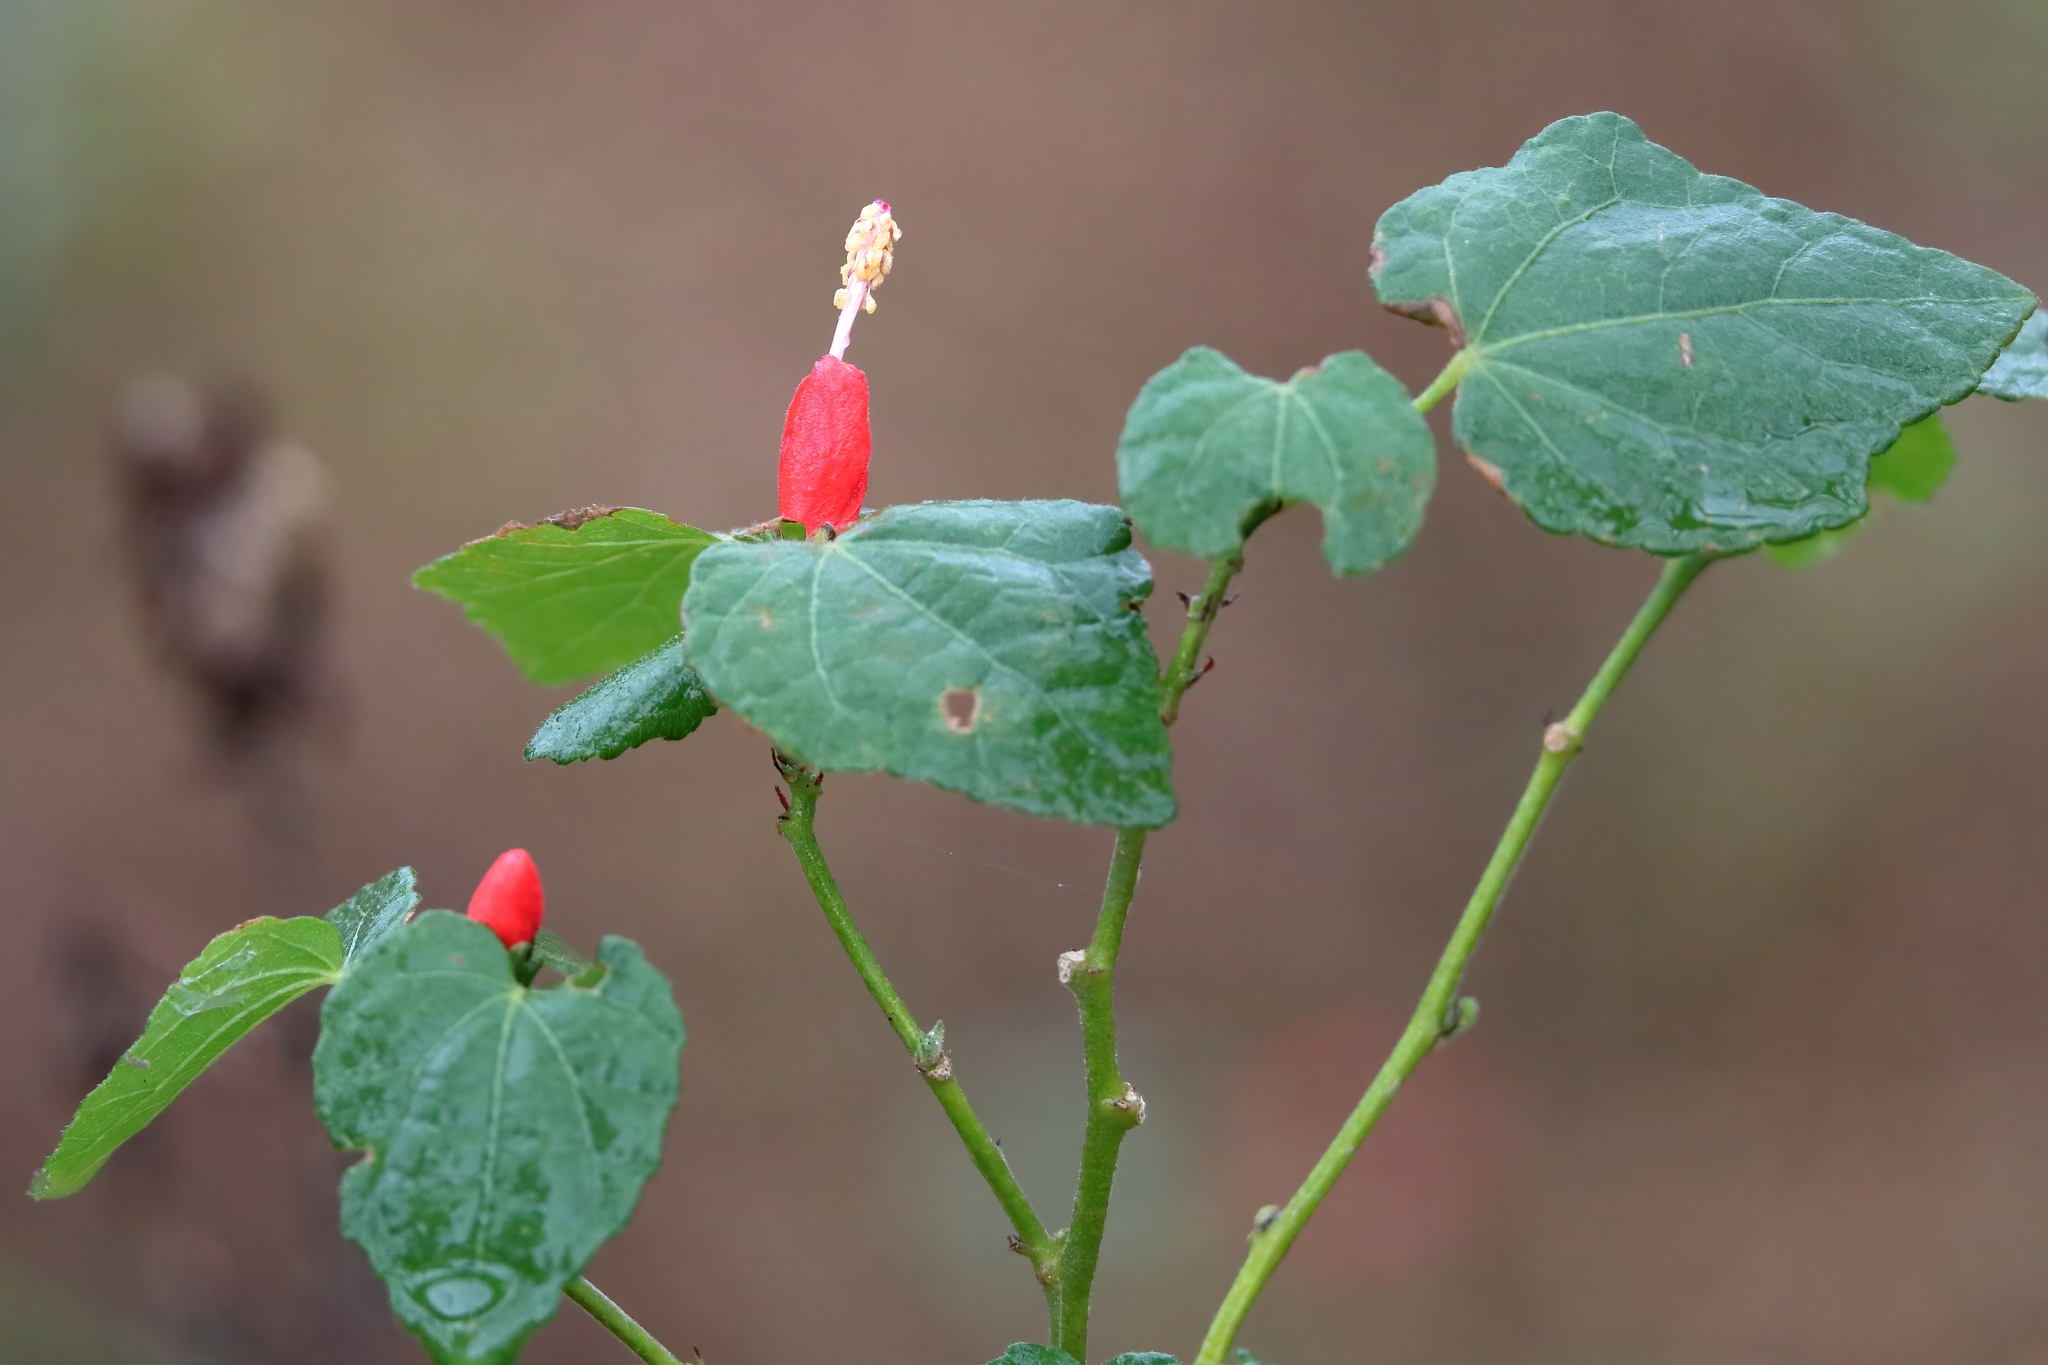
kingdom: Plantae
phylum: Tracheophyta
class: Magnoliopsida
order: Malvales
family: Malvaceae
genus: Malvaviscus
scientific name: Malvaviscus arboreus
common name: Wax mallow
